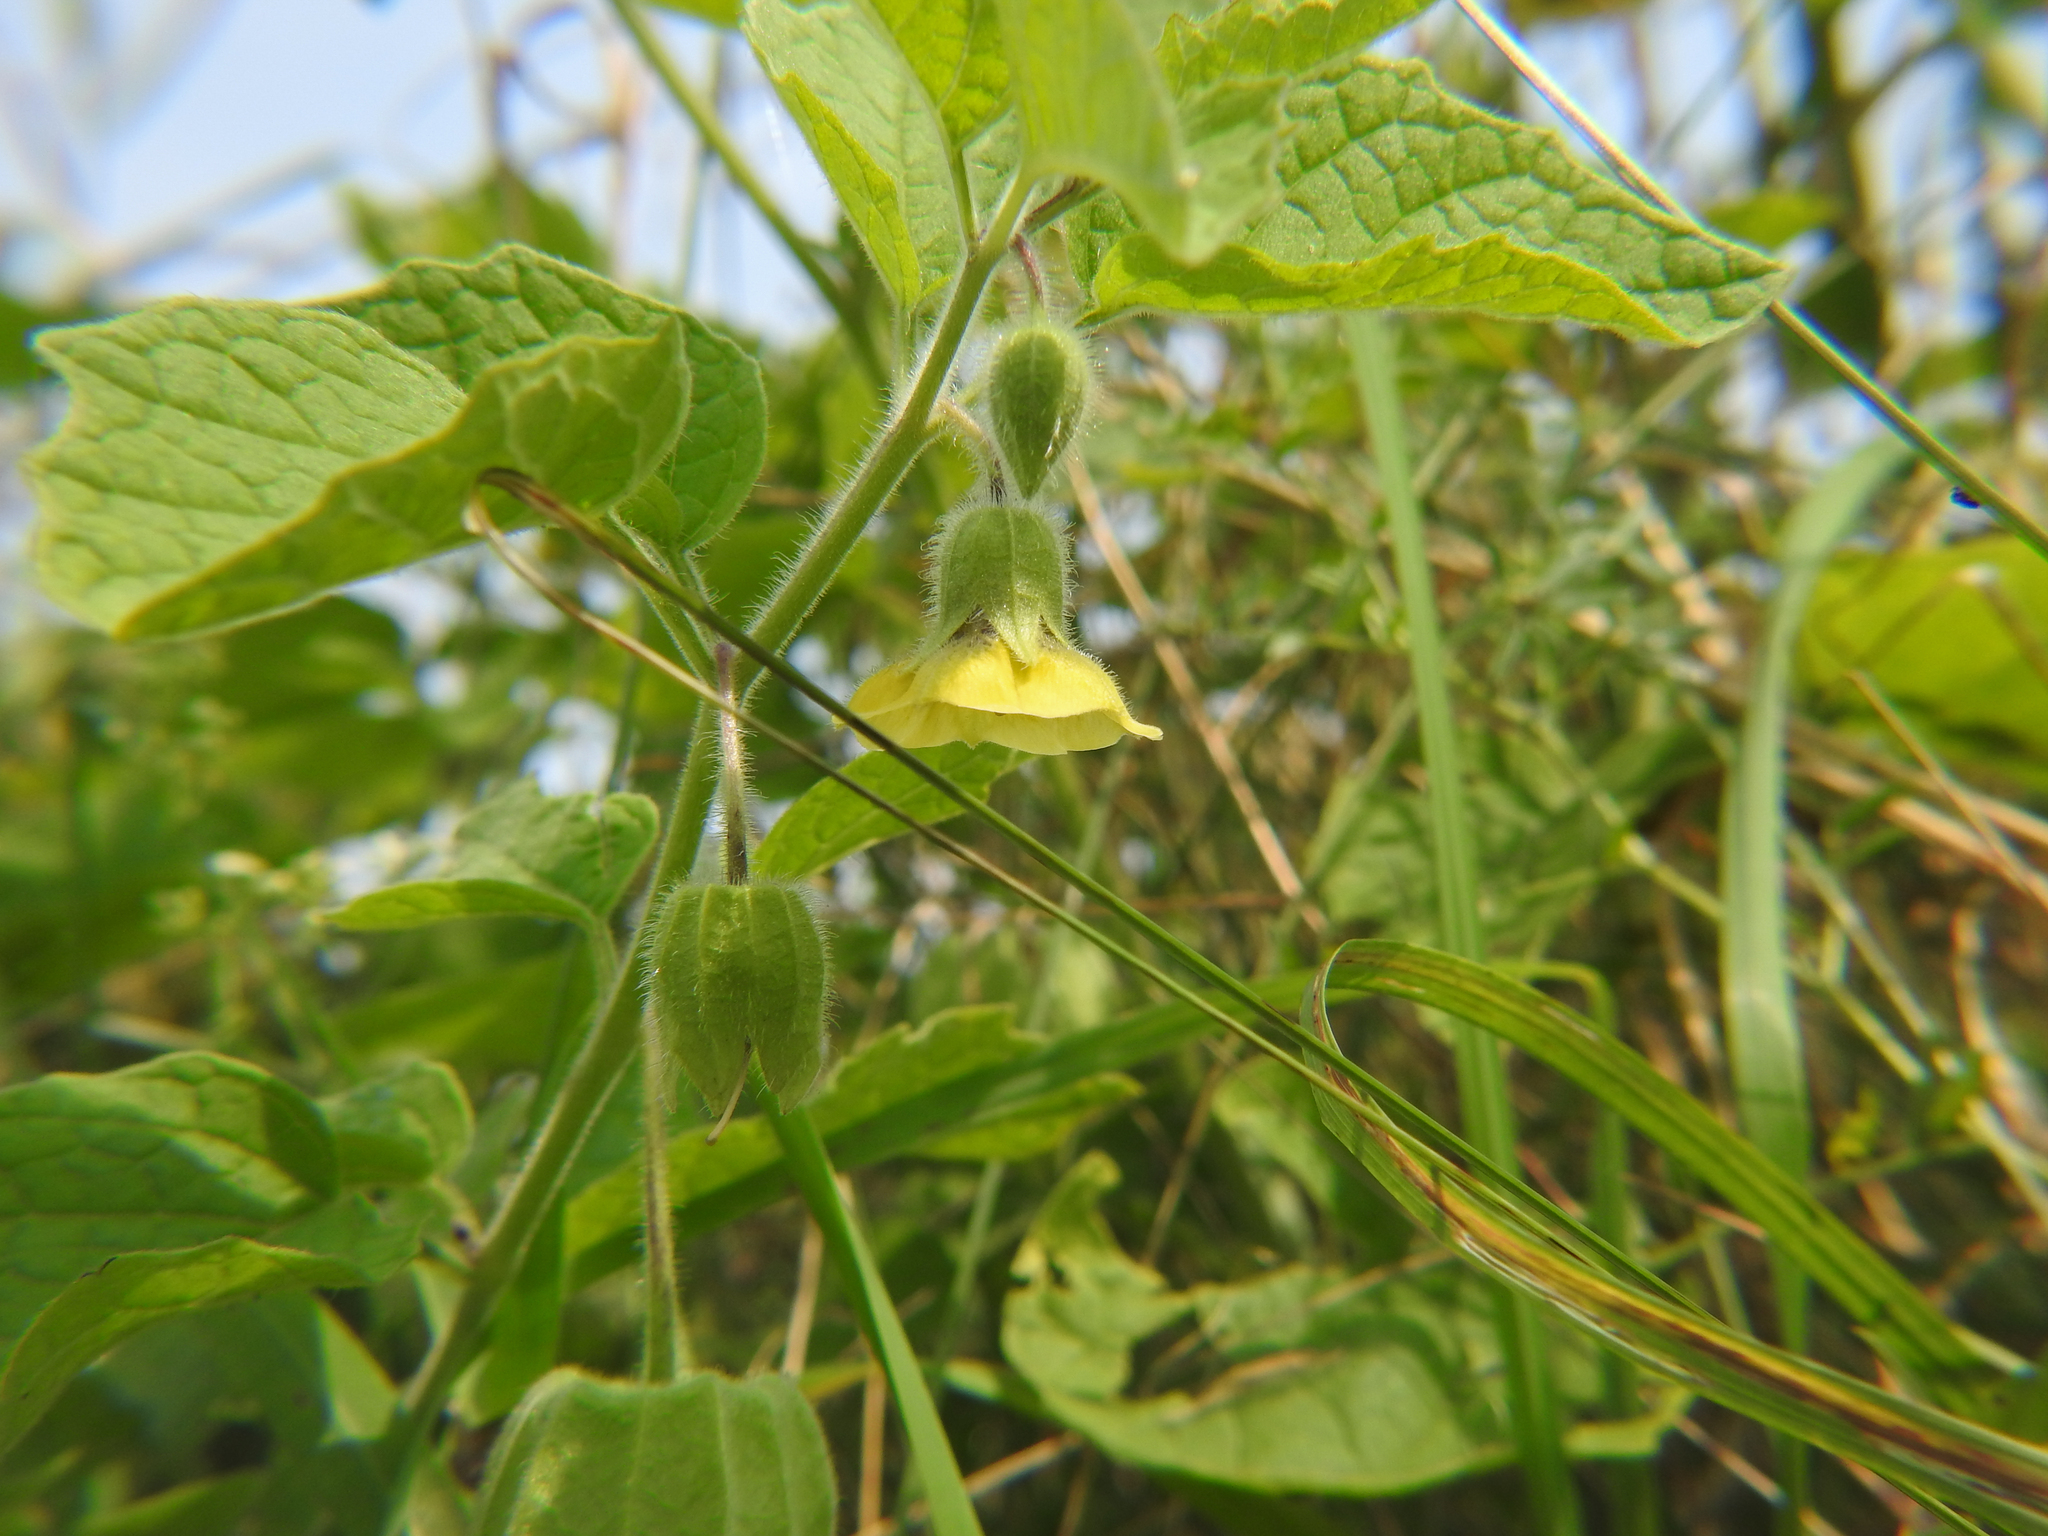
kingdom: Plantae
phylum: Tracheophyta
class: Magnoliopsida
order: Solanales
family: Solanaceae
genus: Physalis
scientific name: Physalis heterophylla
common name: Clammy ground-cherry
